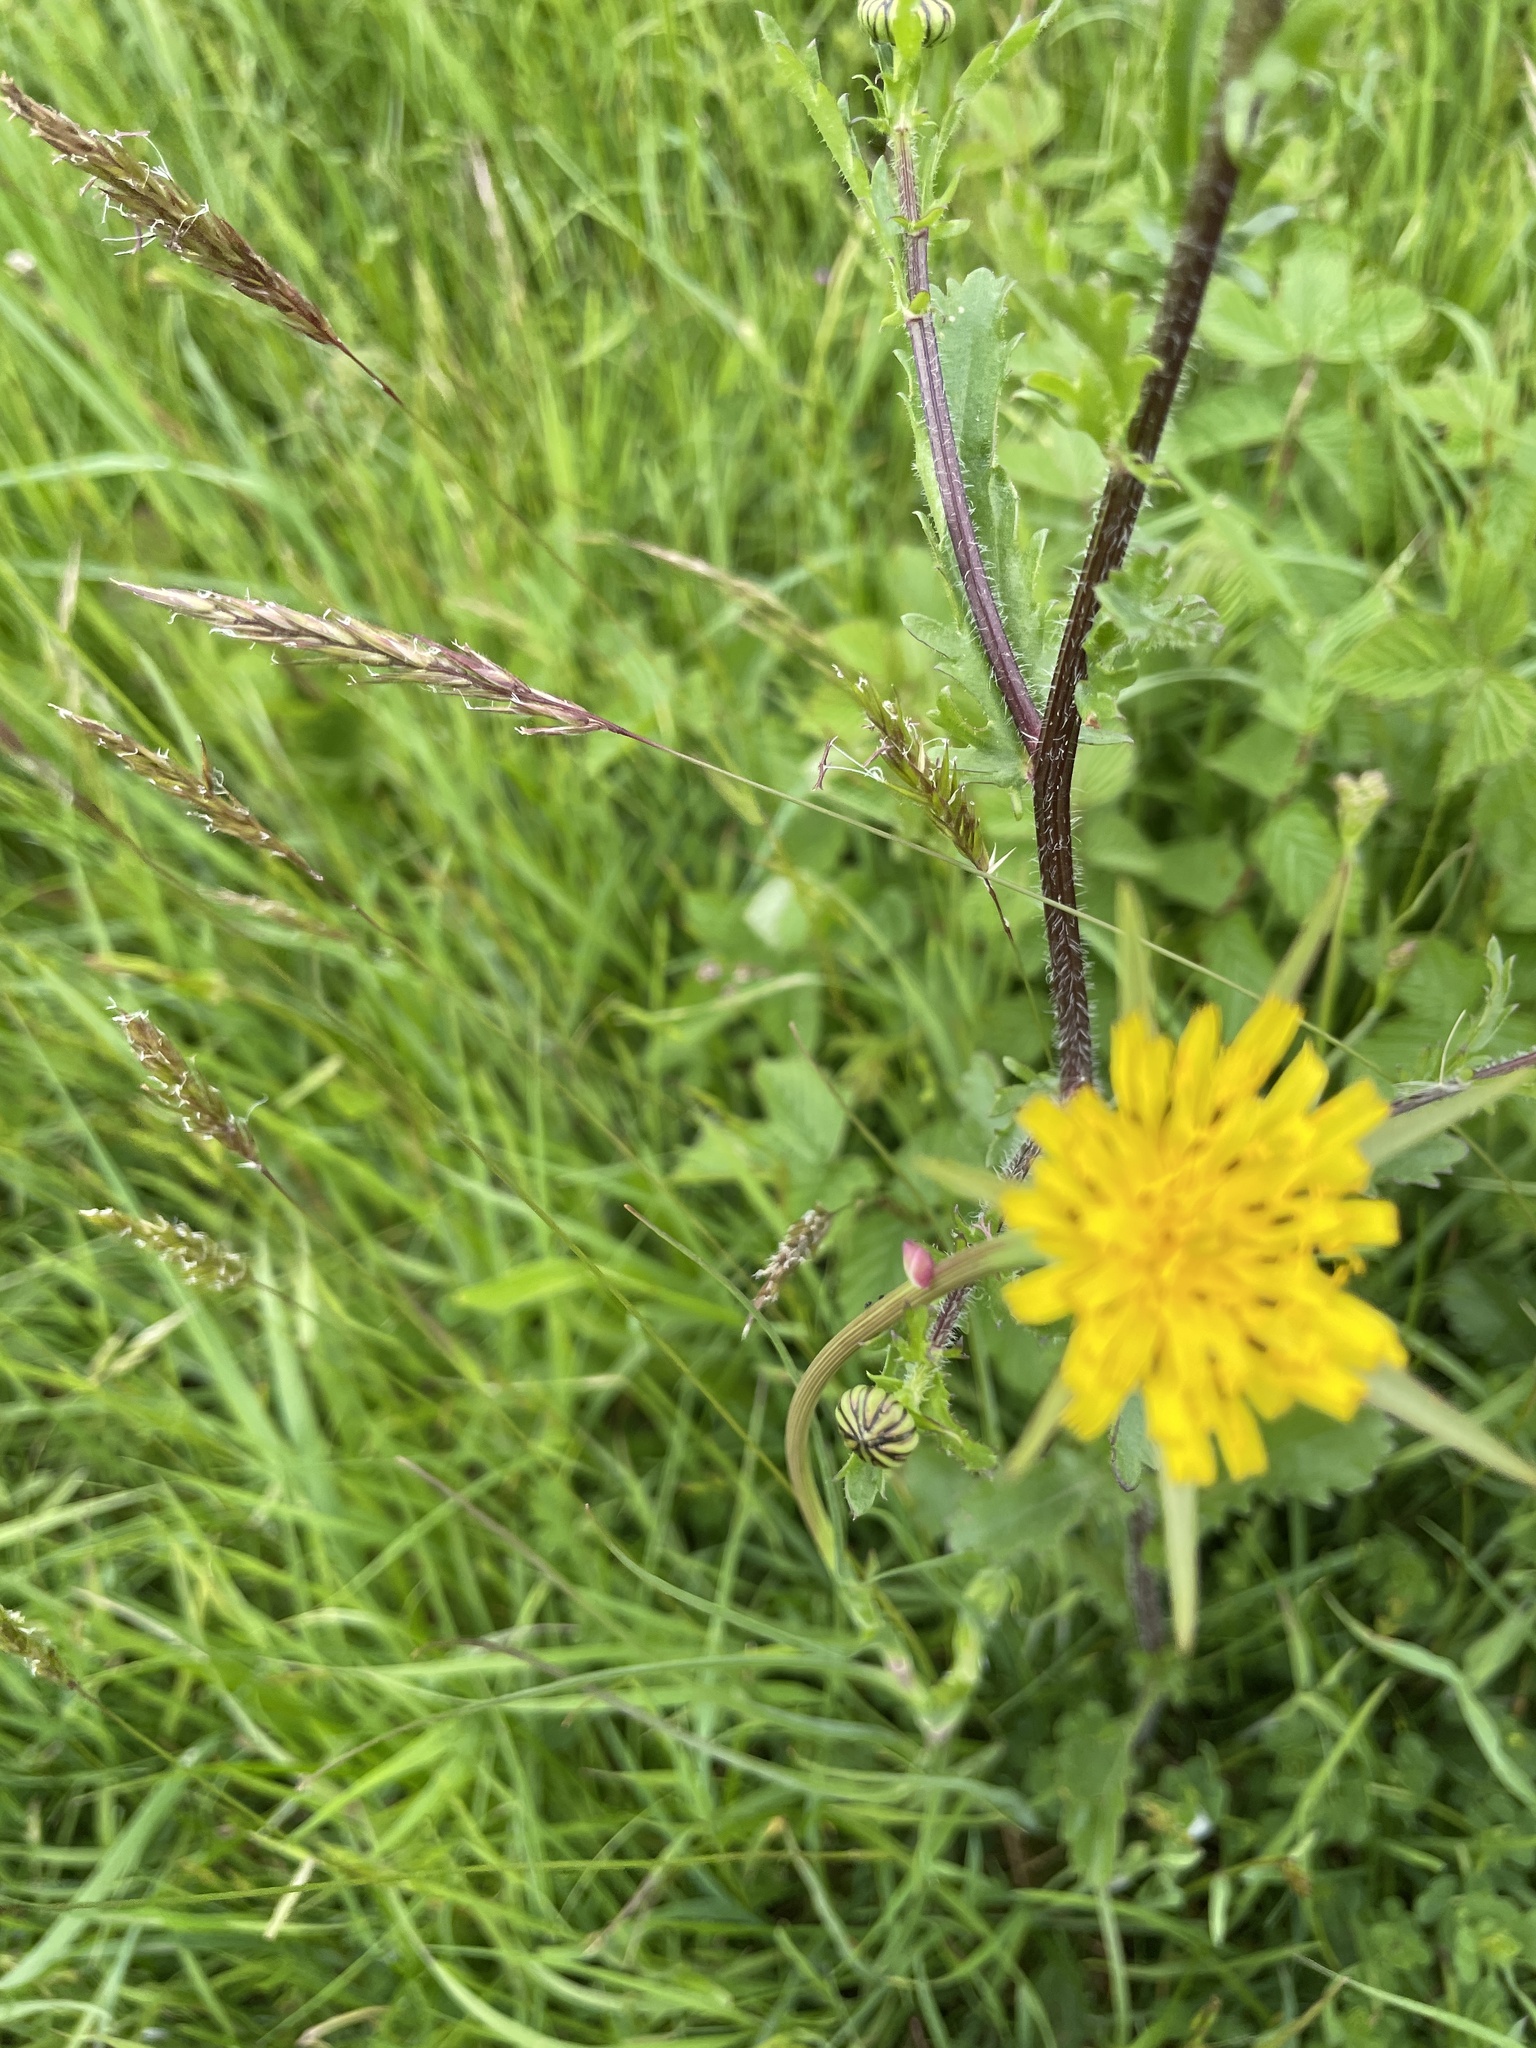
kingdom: Plantae
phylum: Tracheophyta
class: Magnoliopsida
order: Asterales
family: Asteraceae
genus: Tragopogon
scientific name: Tragopogon minor
